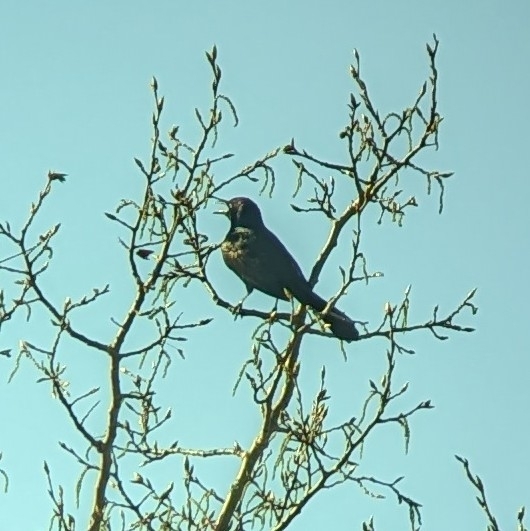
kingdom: Animalia
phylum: Chordata
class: Aves
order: Passeriformes
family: Icteridae
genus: Quiscalus
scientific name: Quiscalus quiscula
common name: Common grackle
